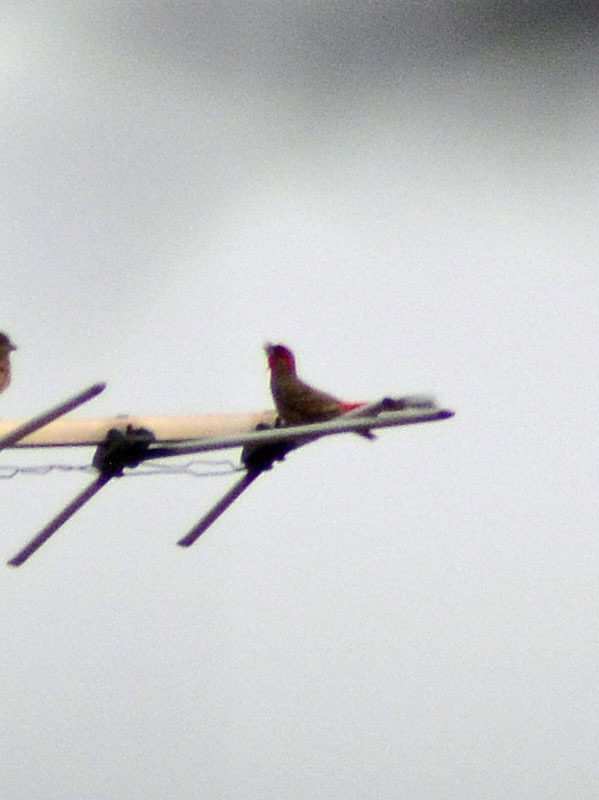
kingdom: Animalia
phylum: Chordata
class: Aves
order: Passeriformes
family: Fringillidae
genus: Haemorhous
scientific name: Haemorhous mexicanus
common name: House finch
